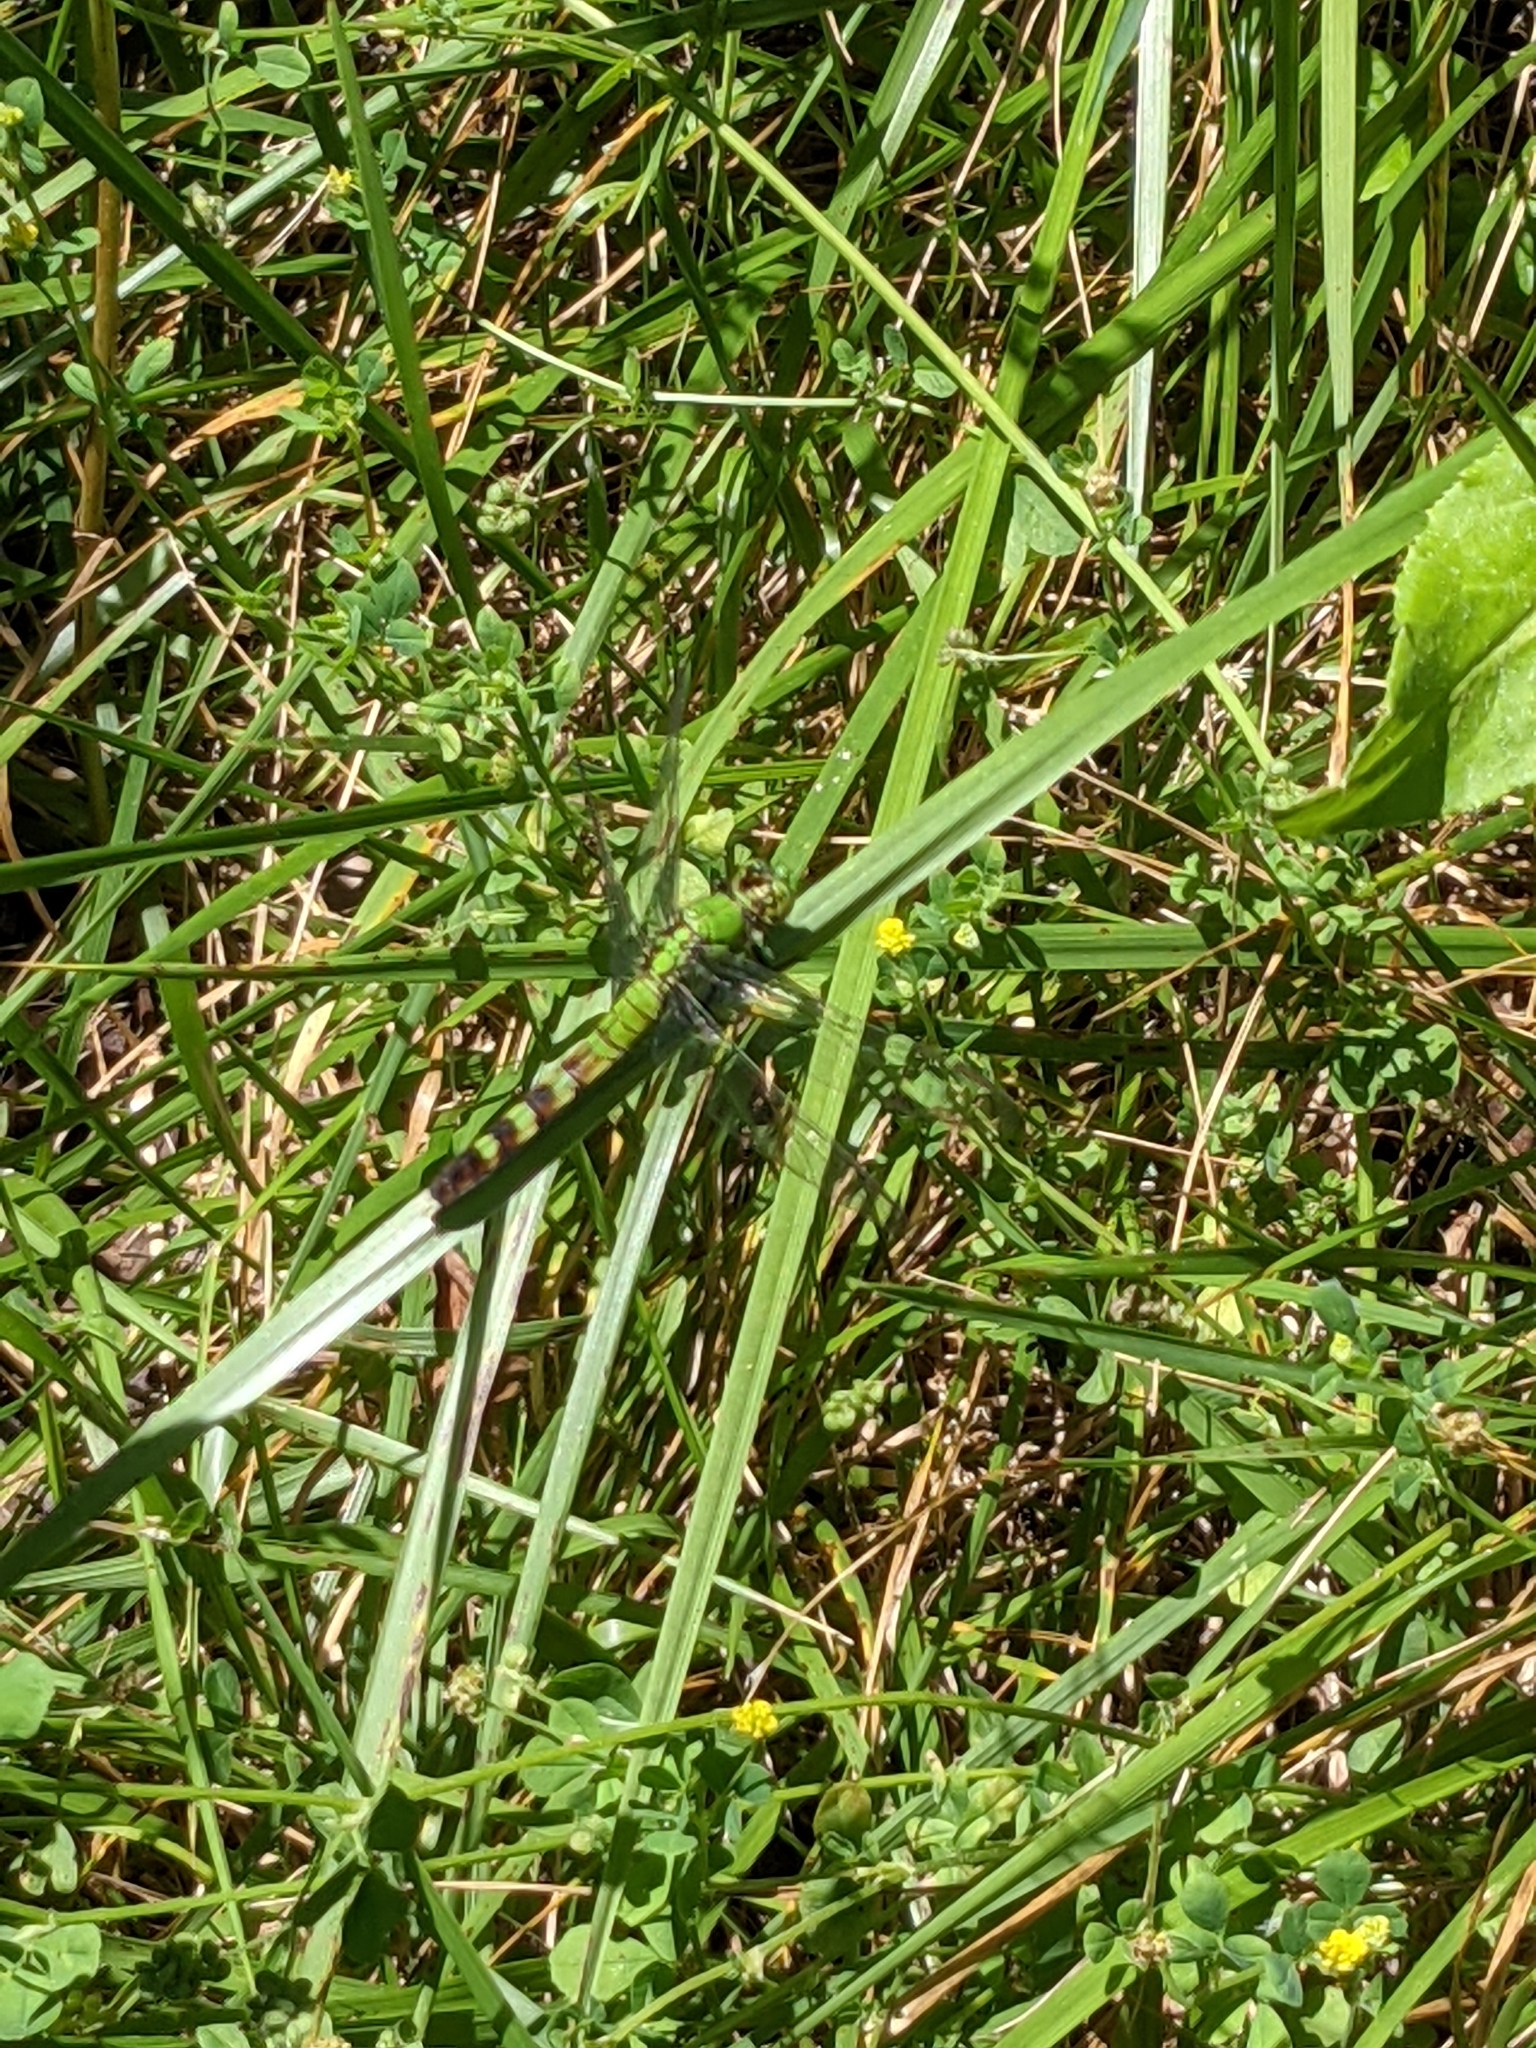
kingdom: Animalia
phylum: Arthropoda
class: Insecta
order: Odonata
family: Libellulidae
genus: Erythemis
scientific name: Erythemis simplicicollis
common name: Eastern pondhawk
